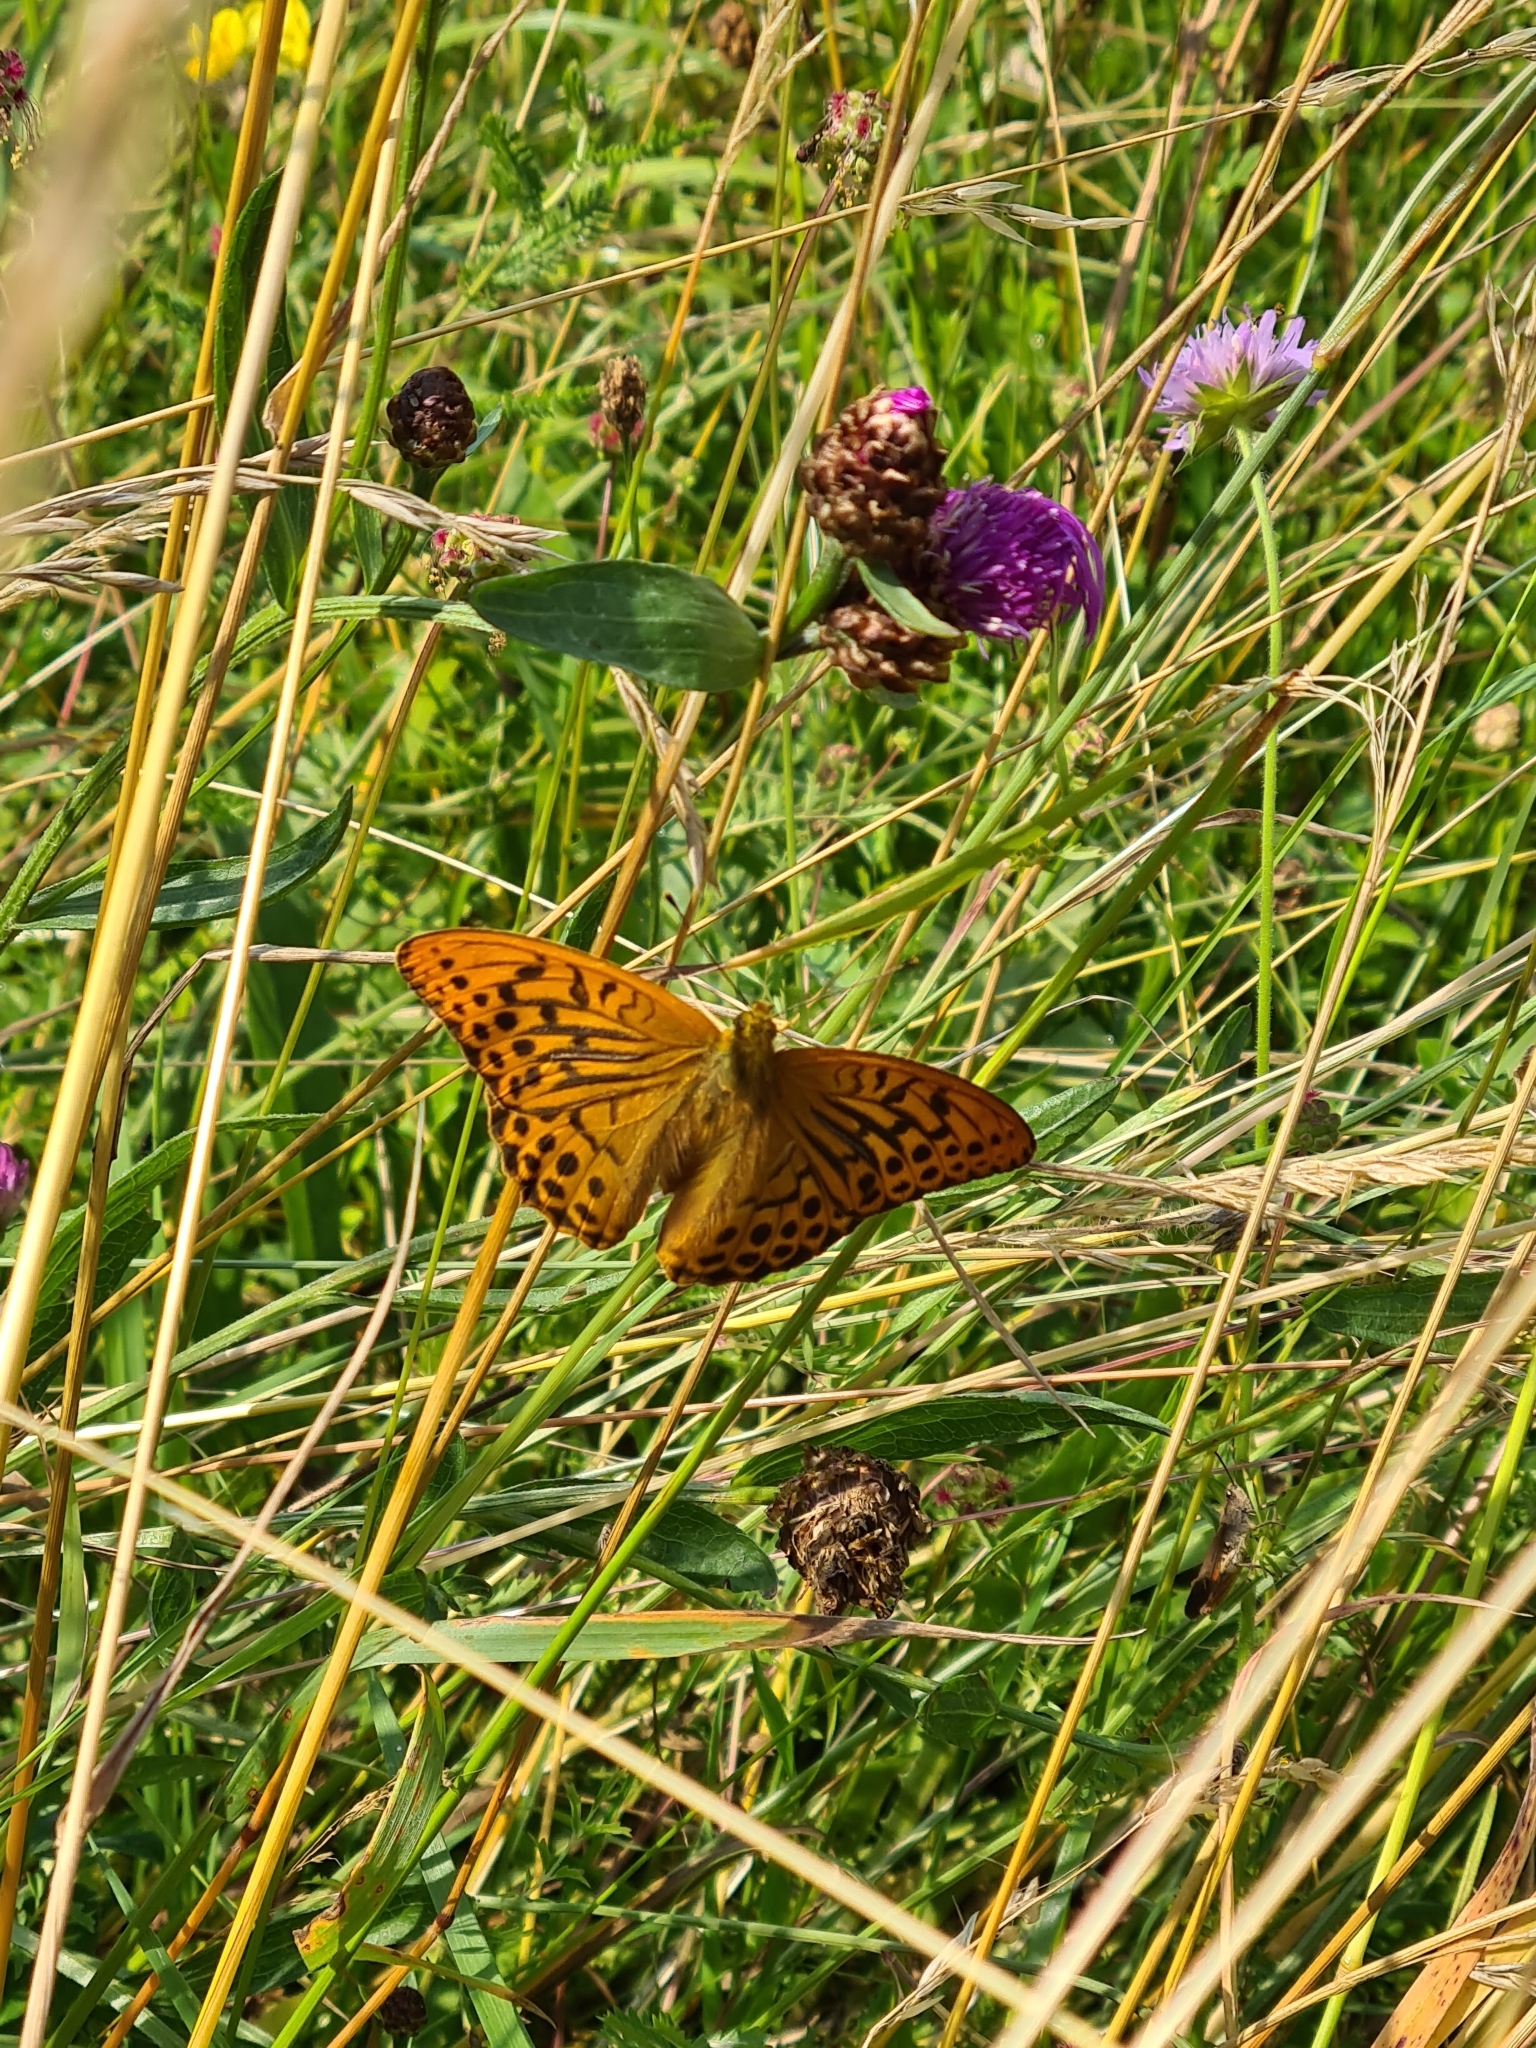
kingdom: Animalia
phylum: Arthropoda
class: Insecta
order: Lepidoptera
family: Nymphalidae
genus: Argynnis
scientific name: Argynnis paphia
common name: Silver-washed fritillary
